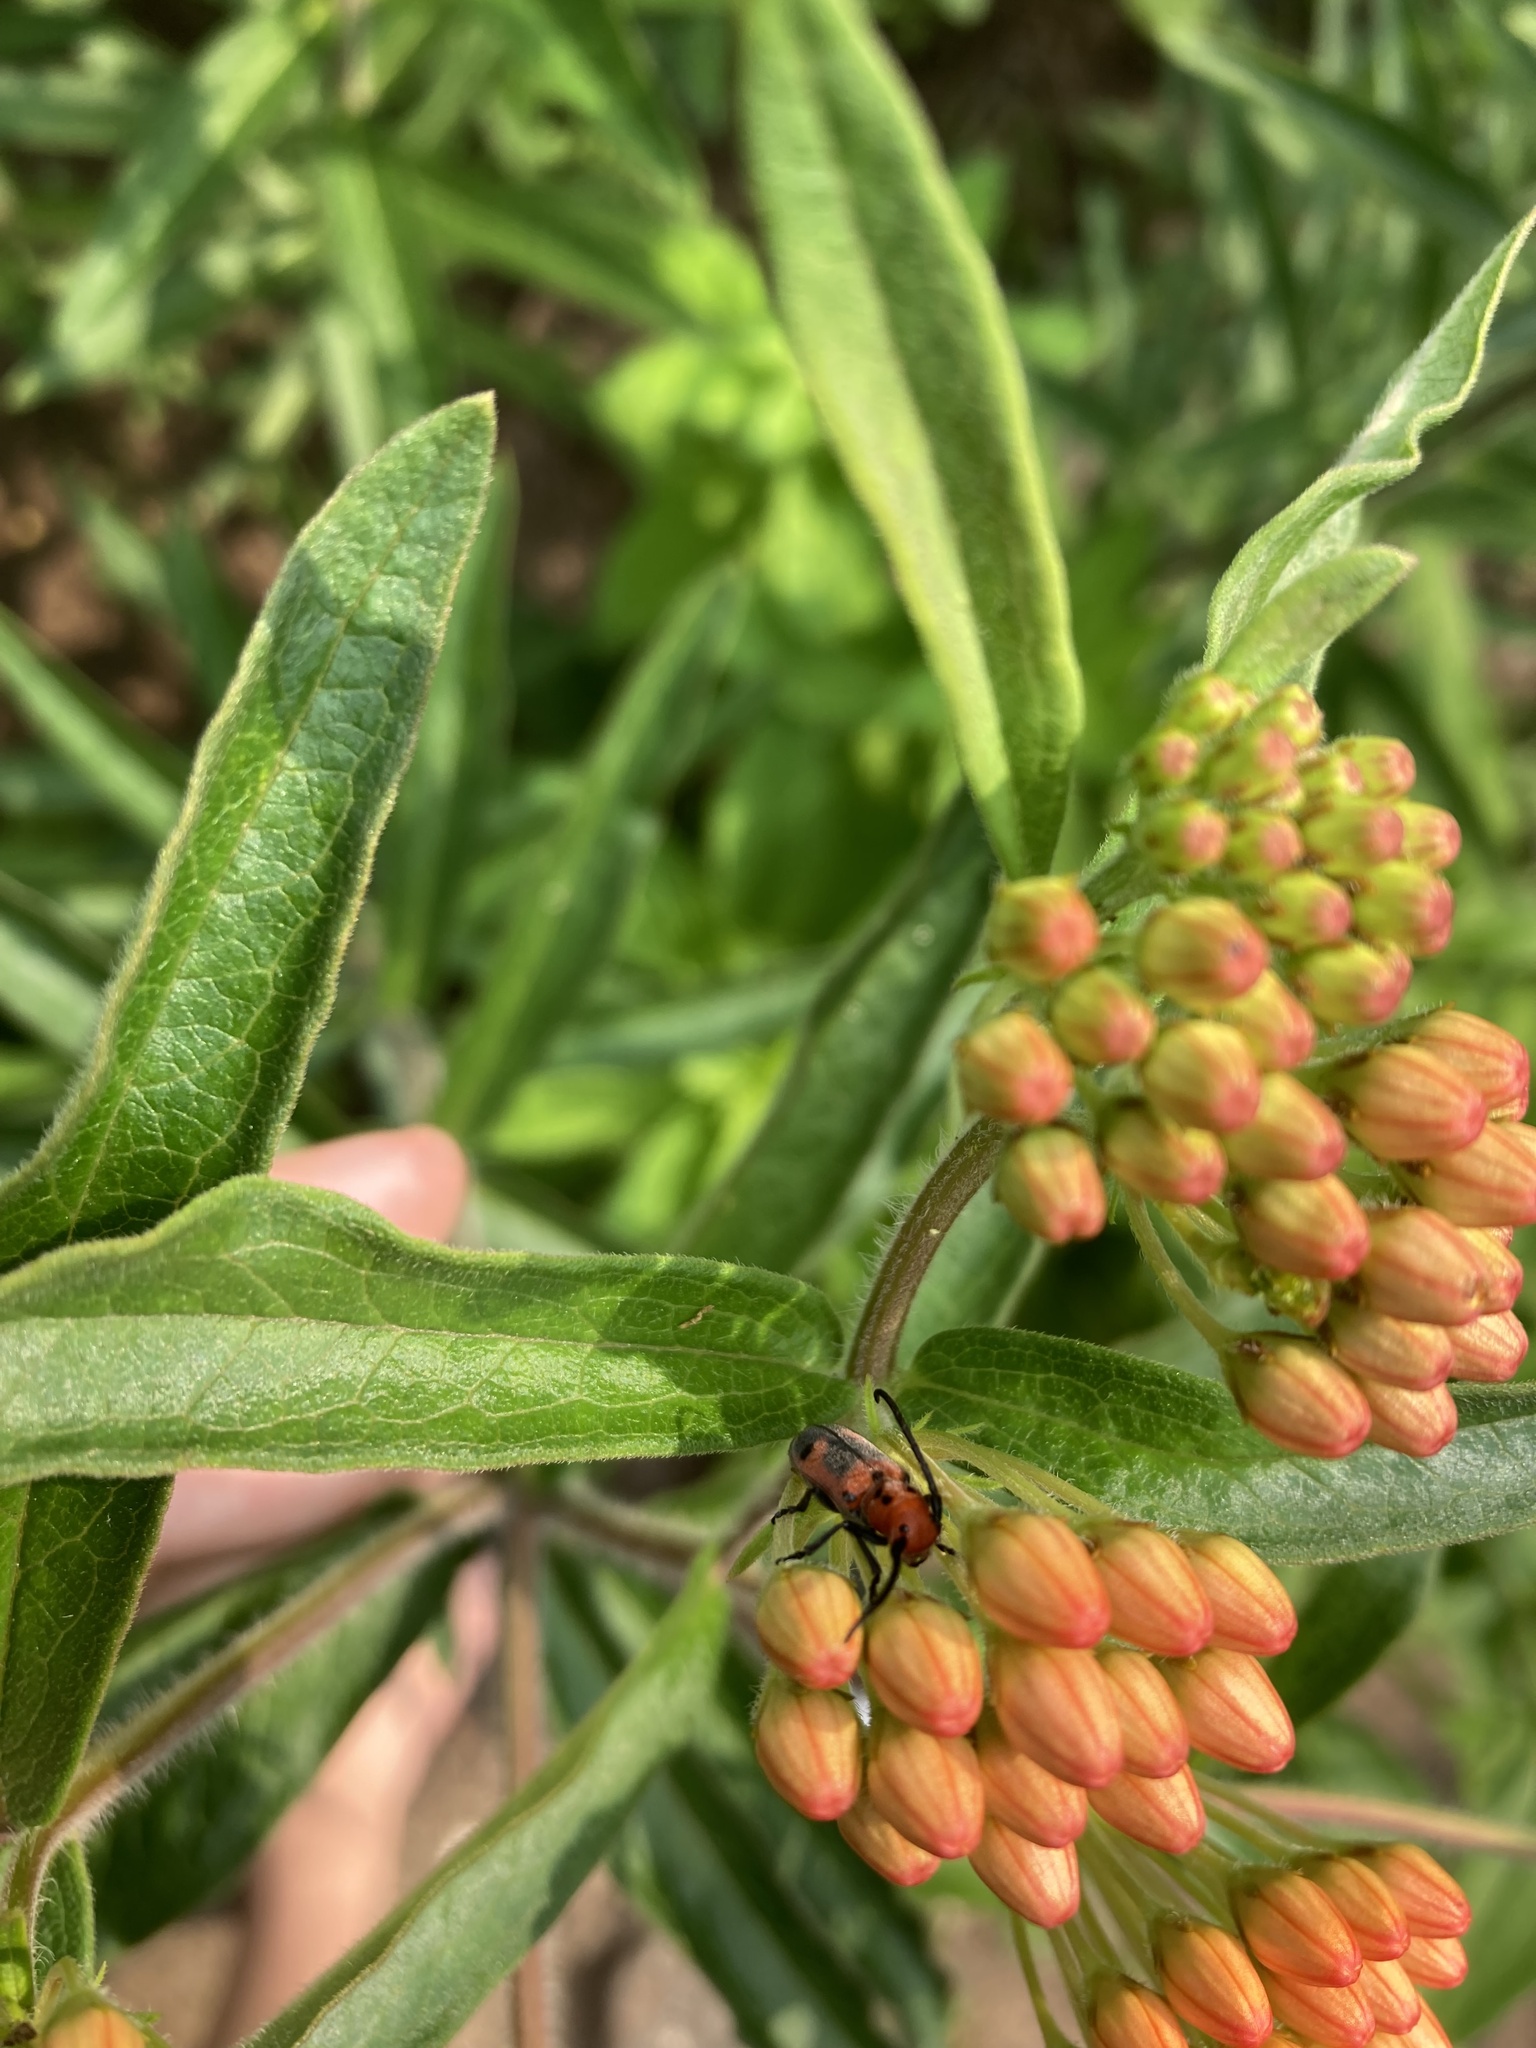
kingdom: Animalia
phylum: Arthropoda
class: Insecta
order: Coleoptera
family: Cerambycidae
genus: Tetraopes
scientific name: Tetraopes melanurus
